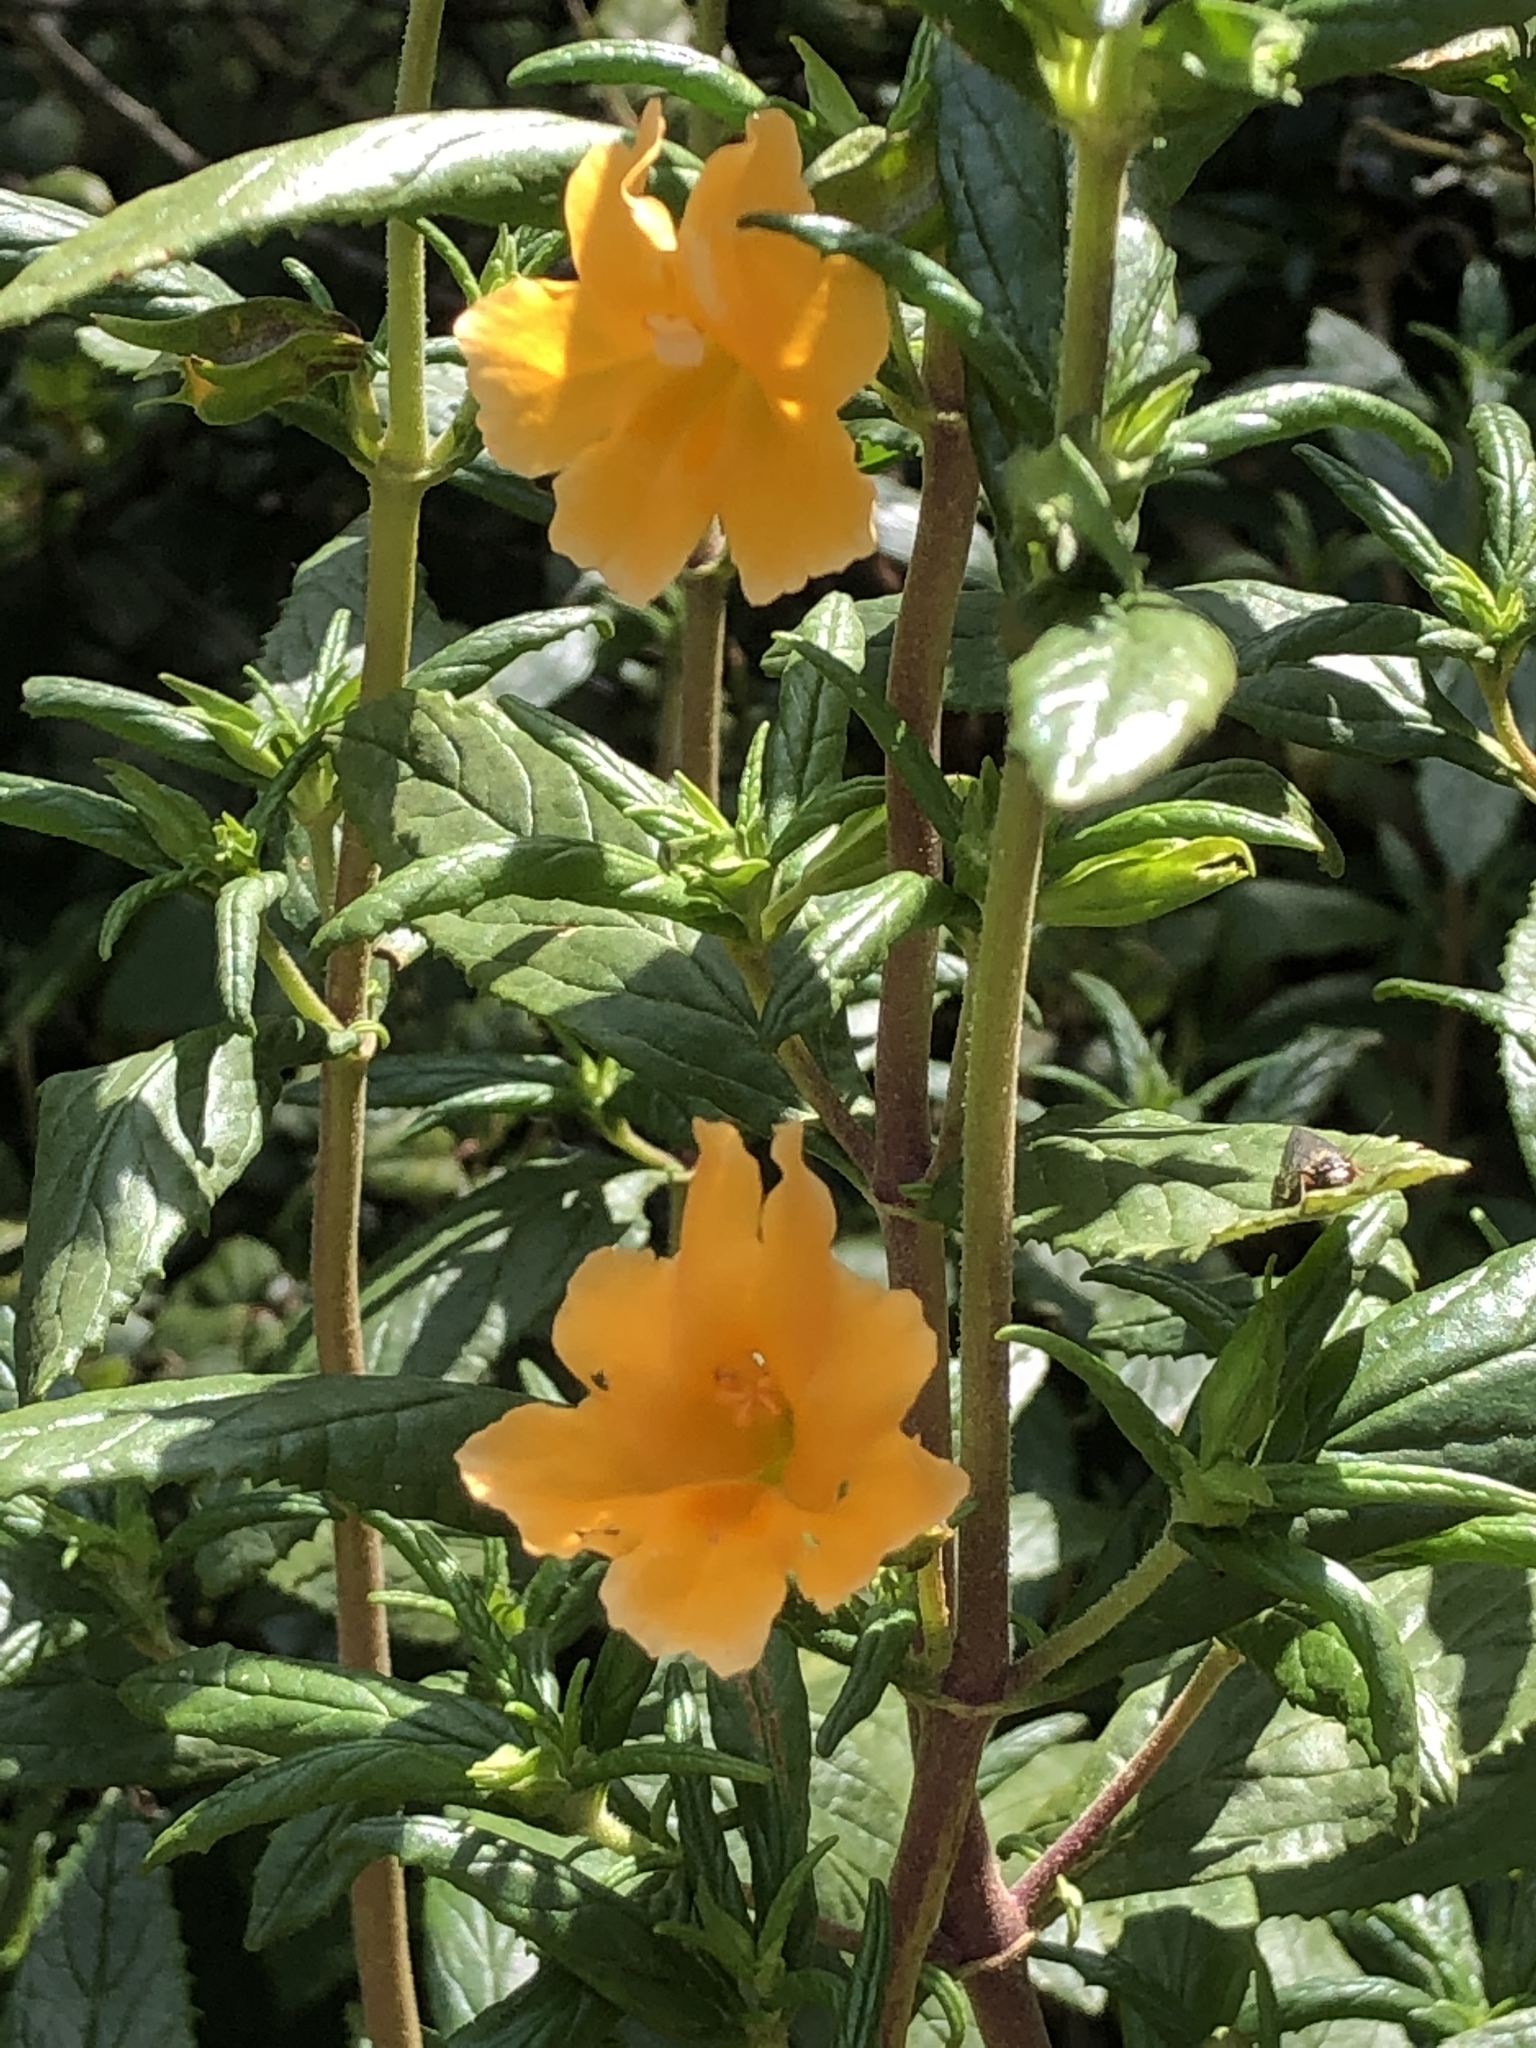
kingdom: Plantae
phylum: Tracheophyta
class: Magnoliopsida
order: Lamiales
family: Phrymaceae
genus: Diplacus
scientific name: Diplacus aurantiacus
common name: Bush monkey-flower
